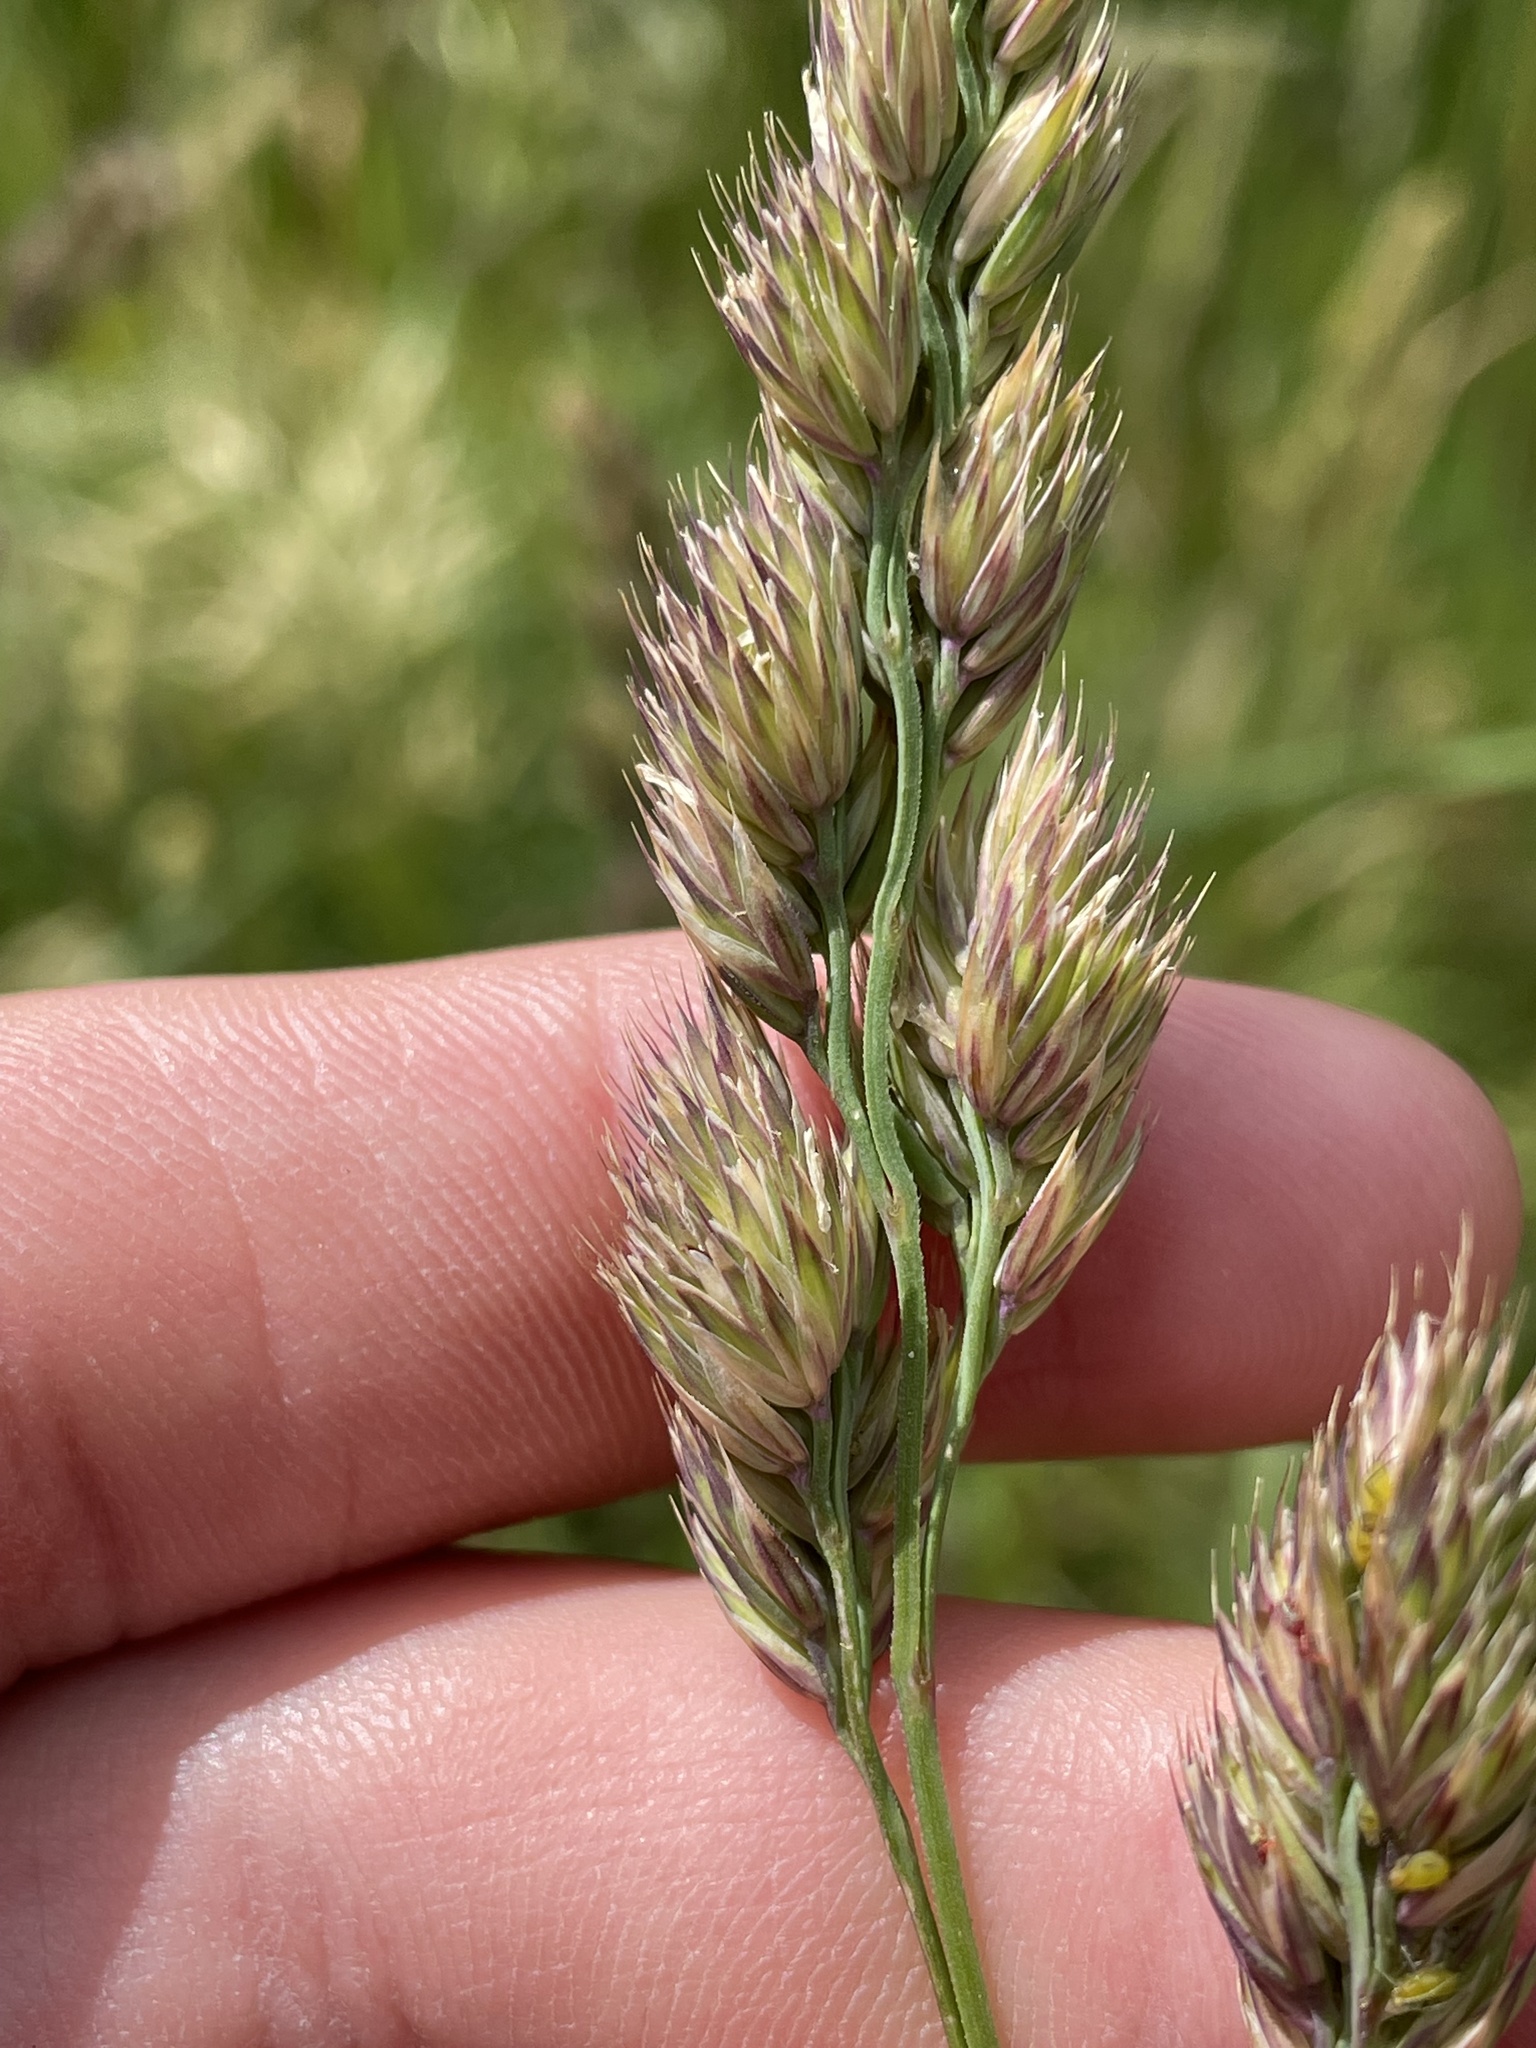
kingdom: Plantae
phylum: Tracheophyta
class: Liliopsida
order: Poales
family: Poaceae
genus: Dactylis
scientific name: Dactylis glomerata
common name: Orchardgrass
